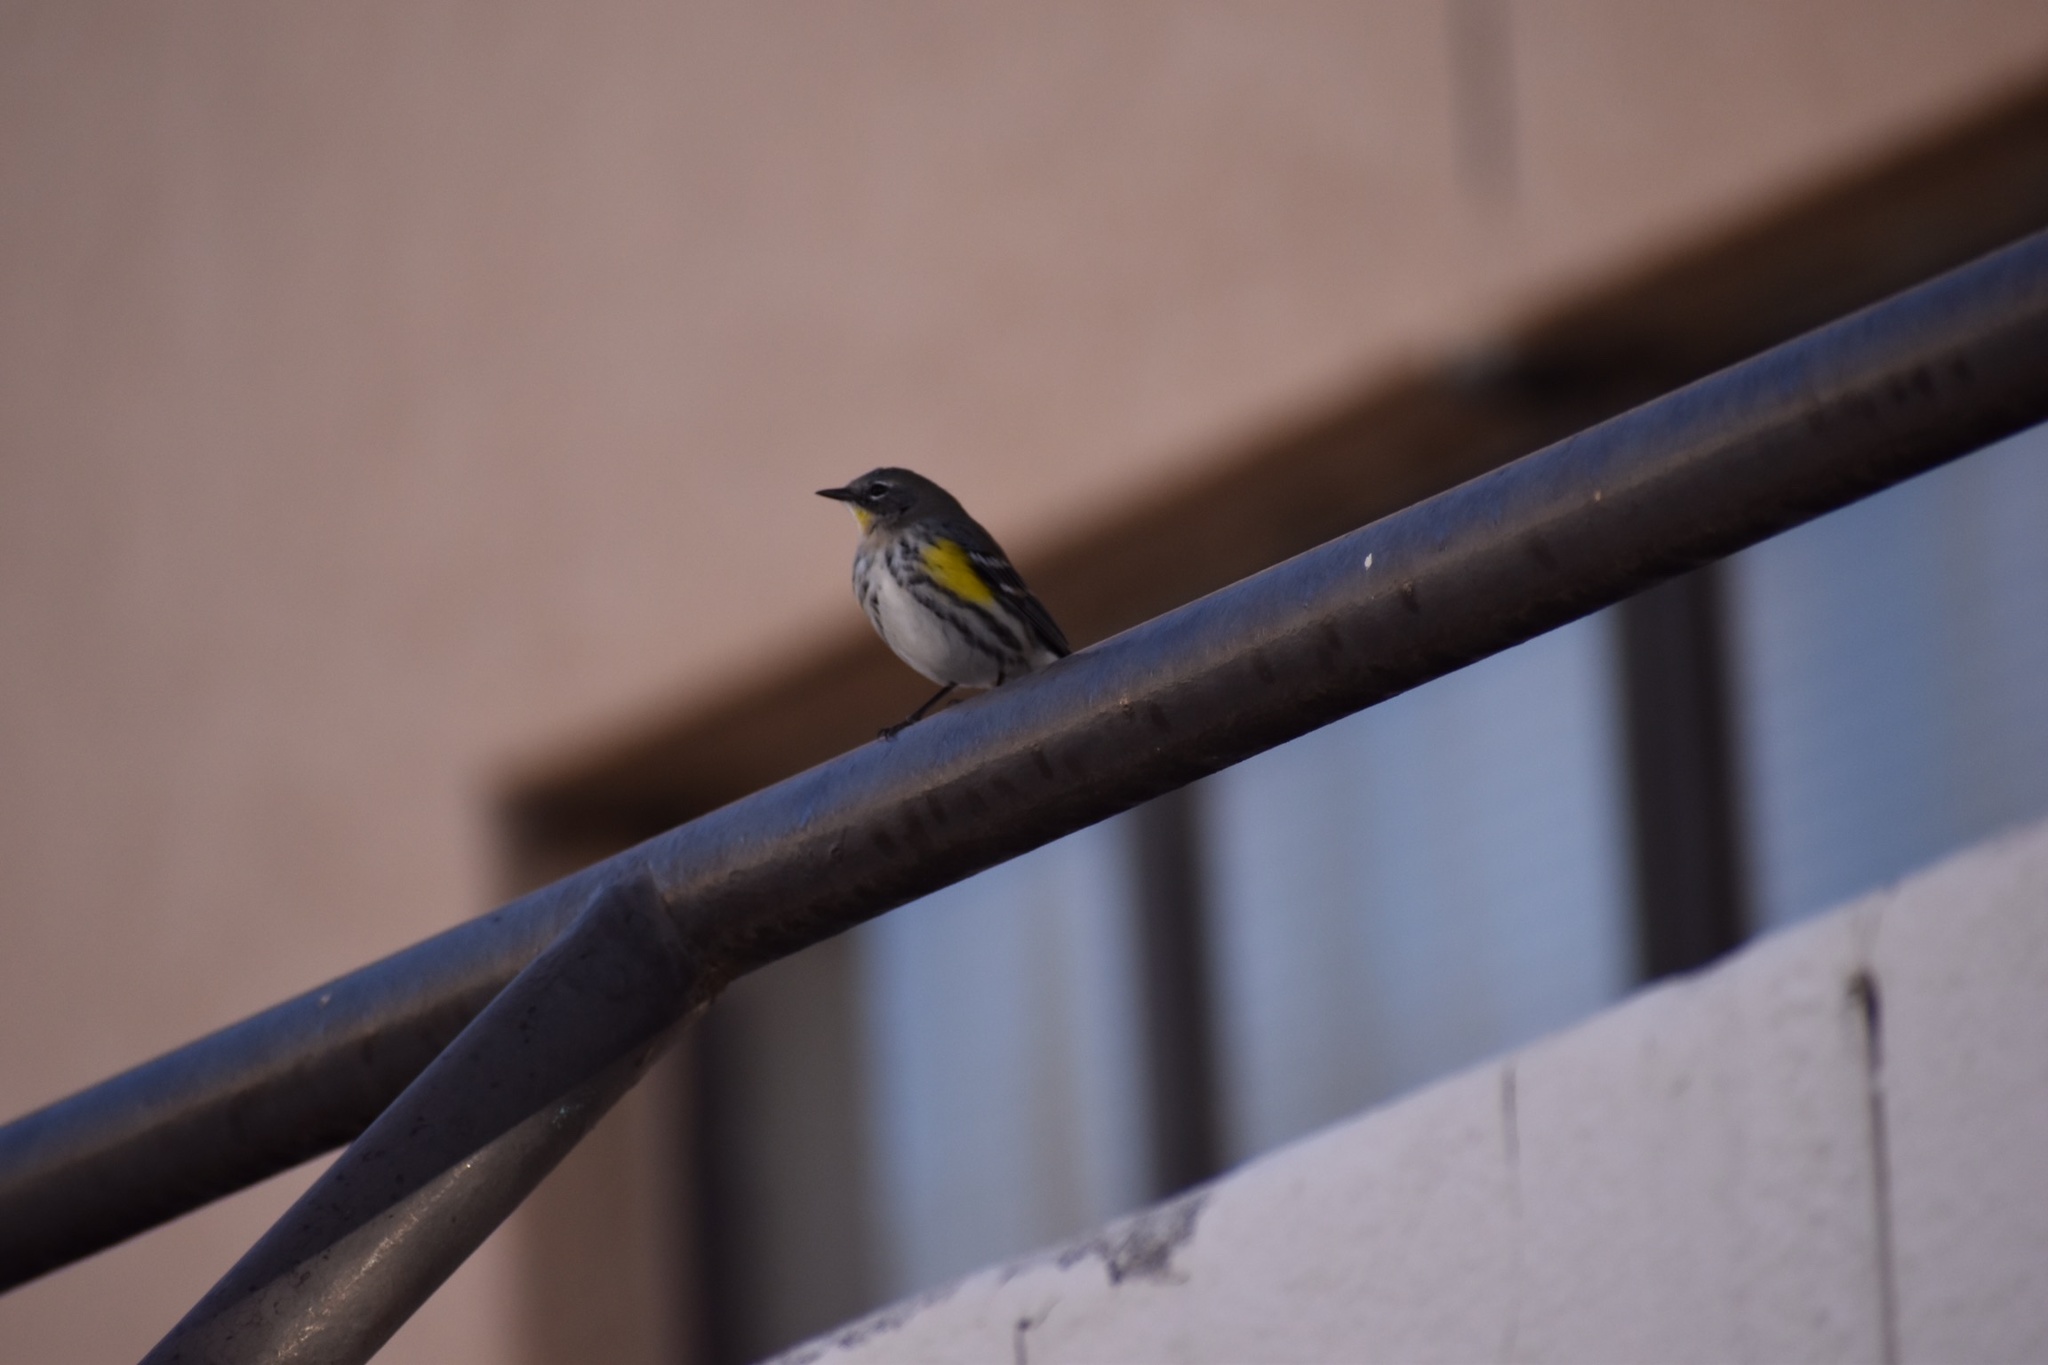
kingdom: Animalia
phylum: Chordata
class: Aves
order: Passeriformes
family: Parulidae
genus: Setophaga
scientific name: Setophaga coronata
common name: Myrtle warbler
